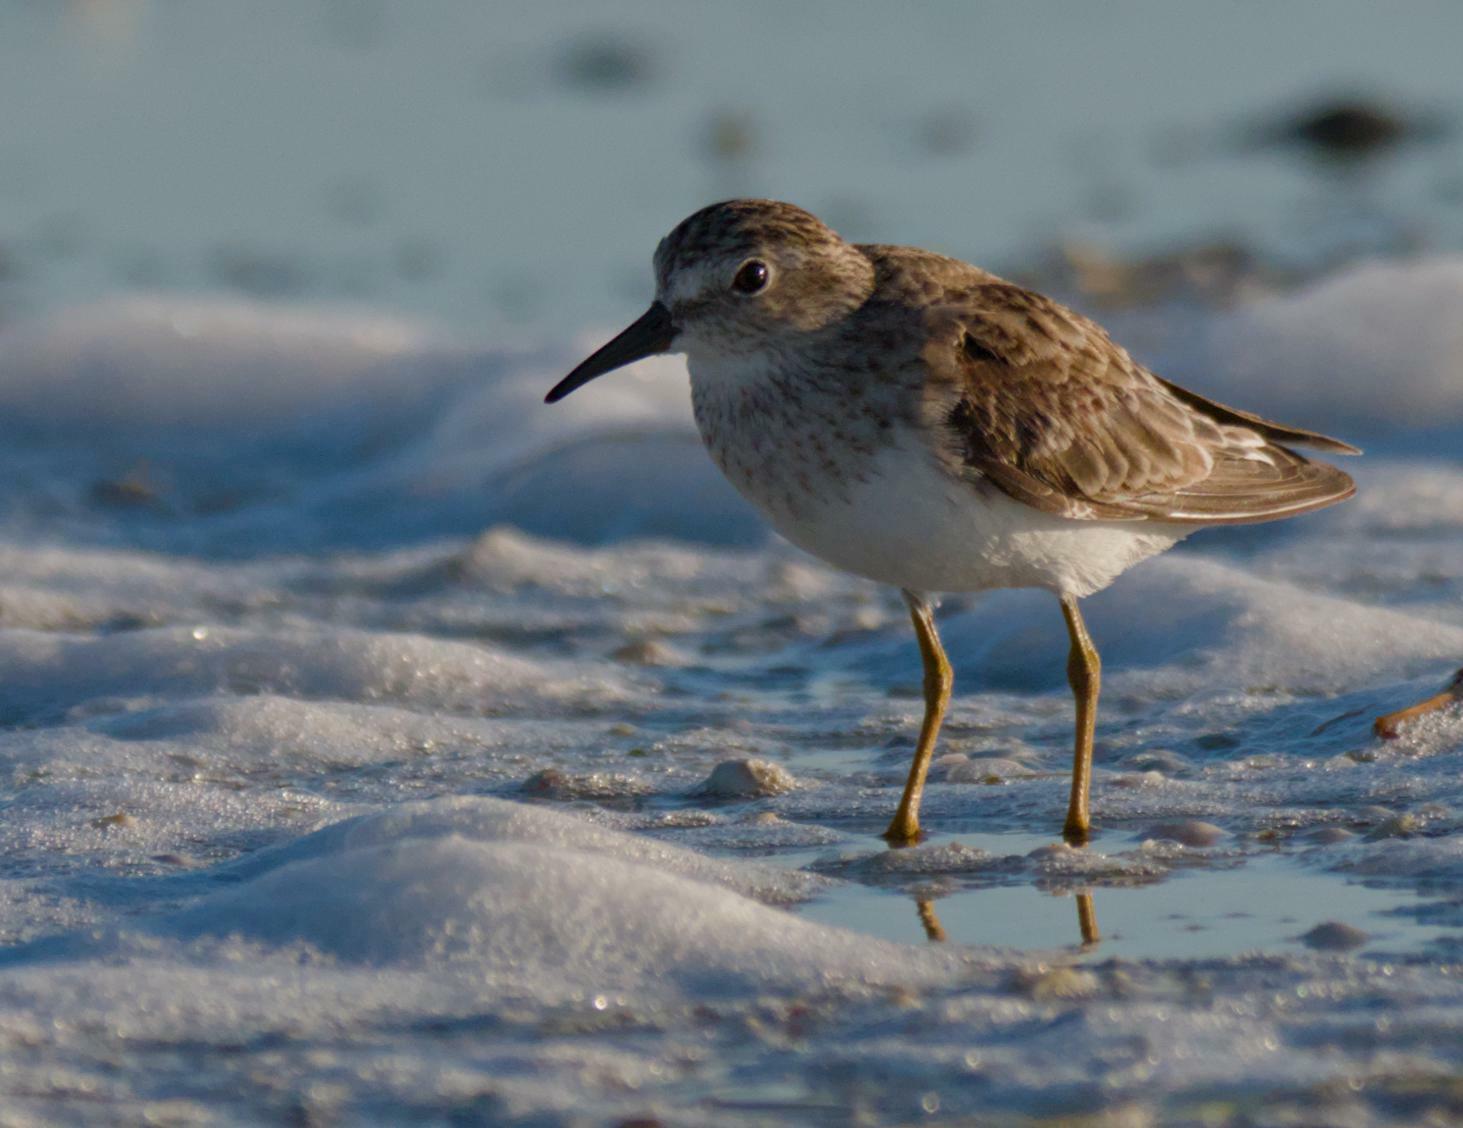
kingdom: Animalia
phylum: Chordata
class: Aves
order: Charadriiformes
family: Scolopacidae
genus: Calidris
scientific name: Calidris minutilla
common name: Least sandpiper
